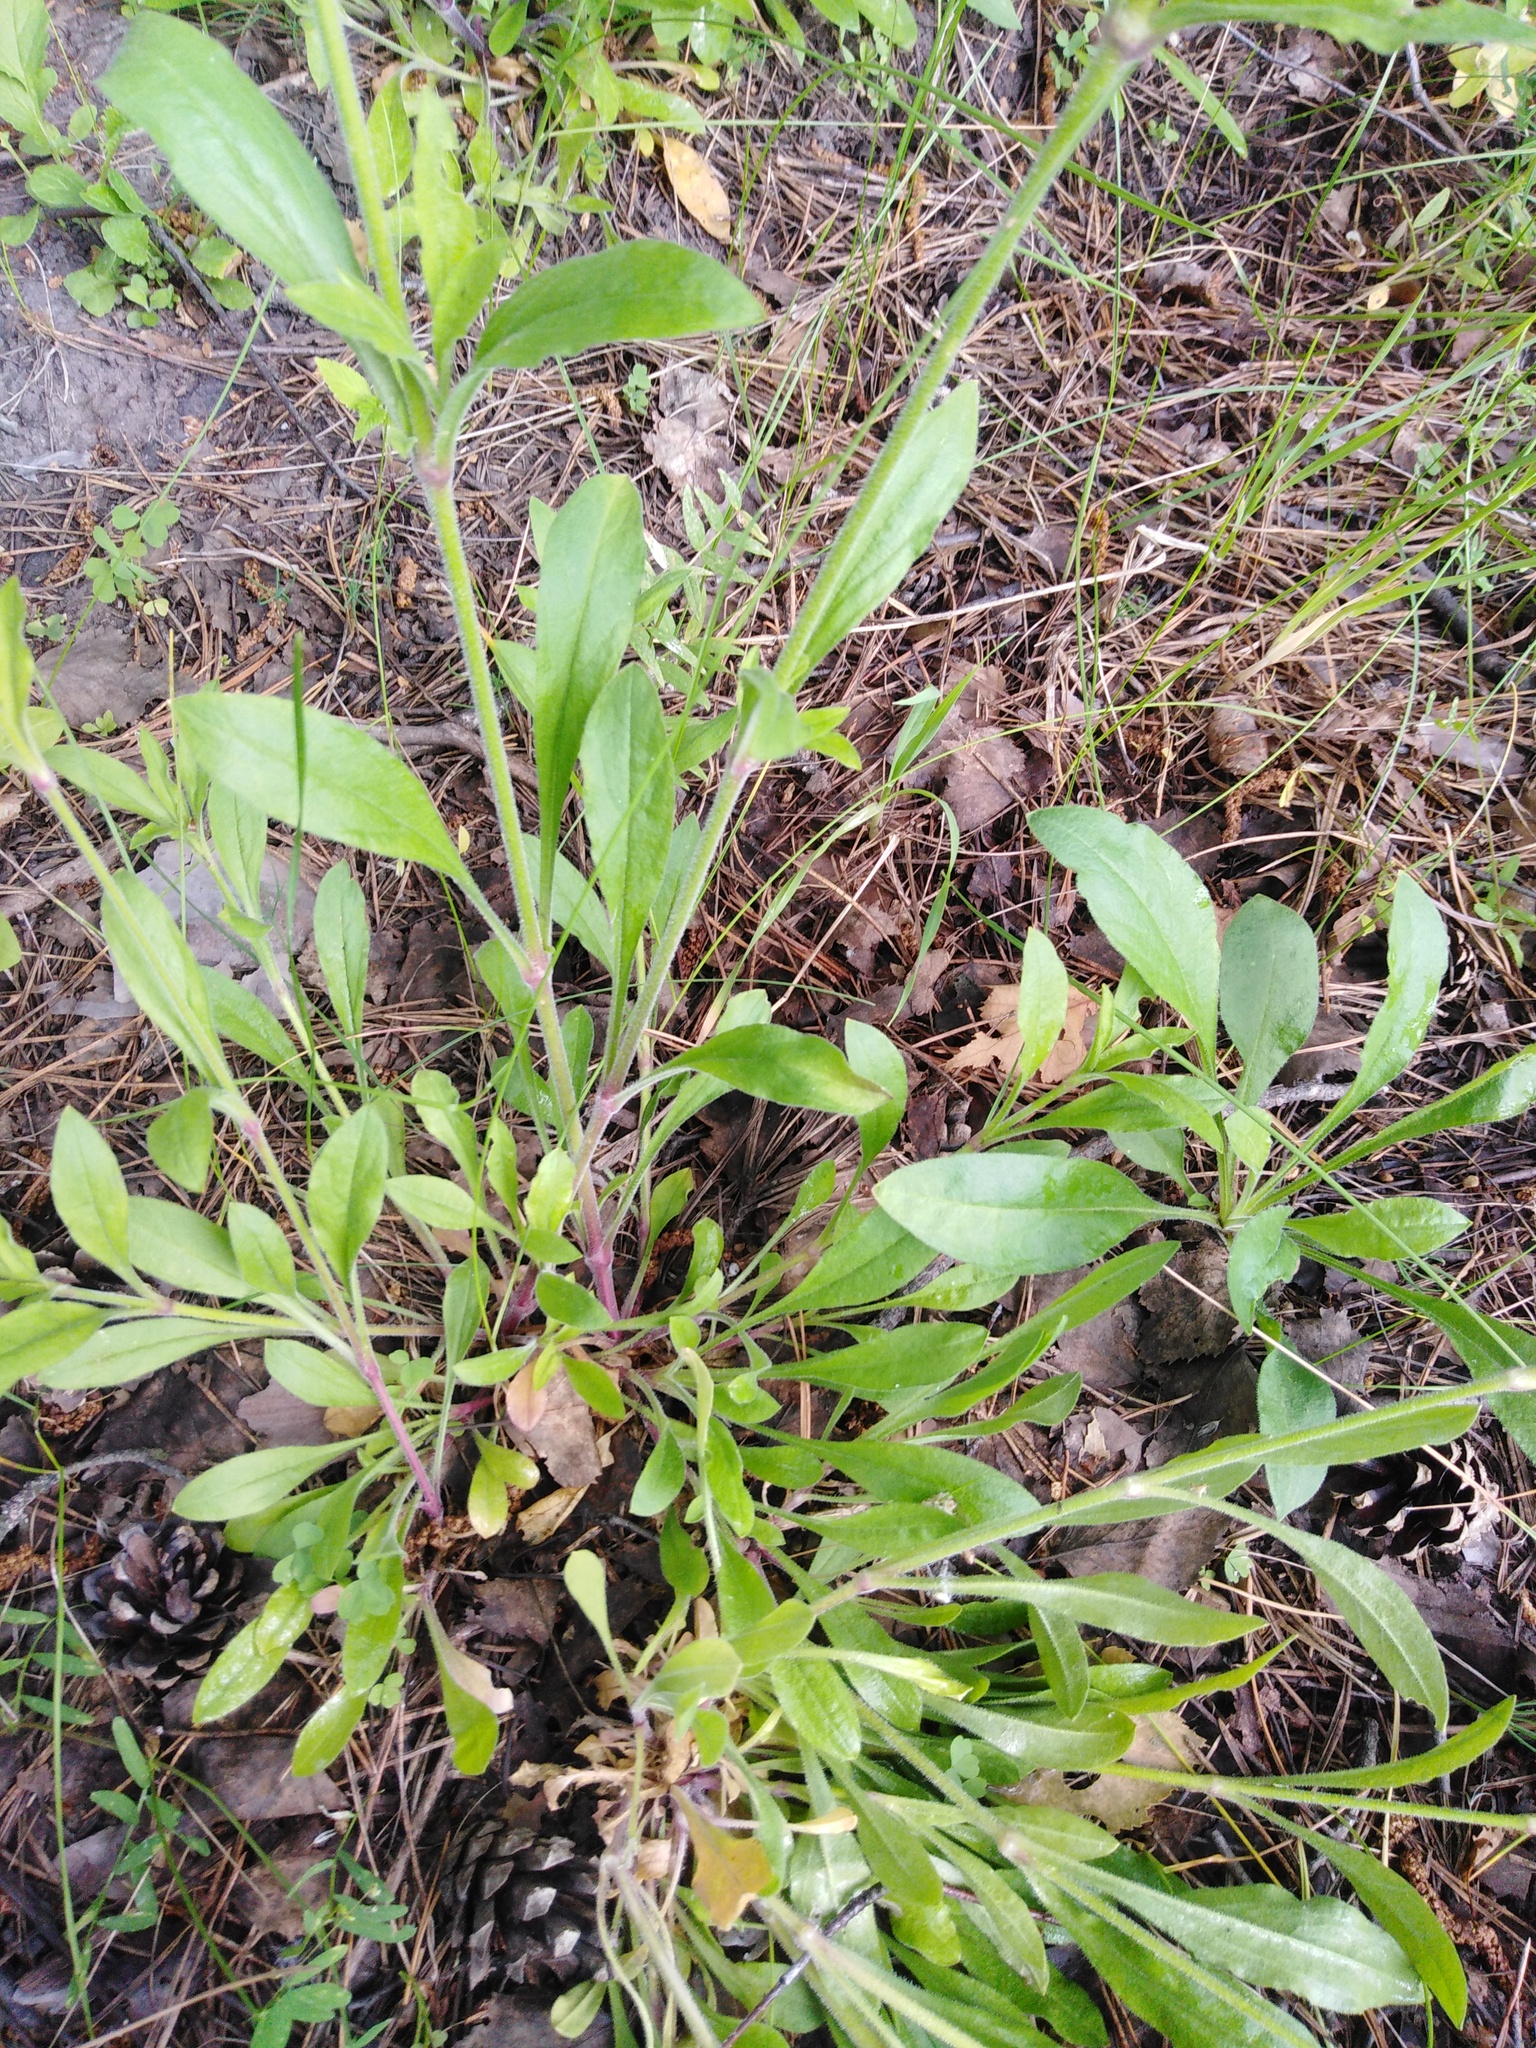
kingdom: Plantae
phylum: Tracheophyta
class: Magnoliopsida
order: Caryophyllales
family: Caryophyllaceae
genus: Silene
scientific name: Silene nutans
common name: Nottingham catchfly
